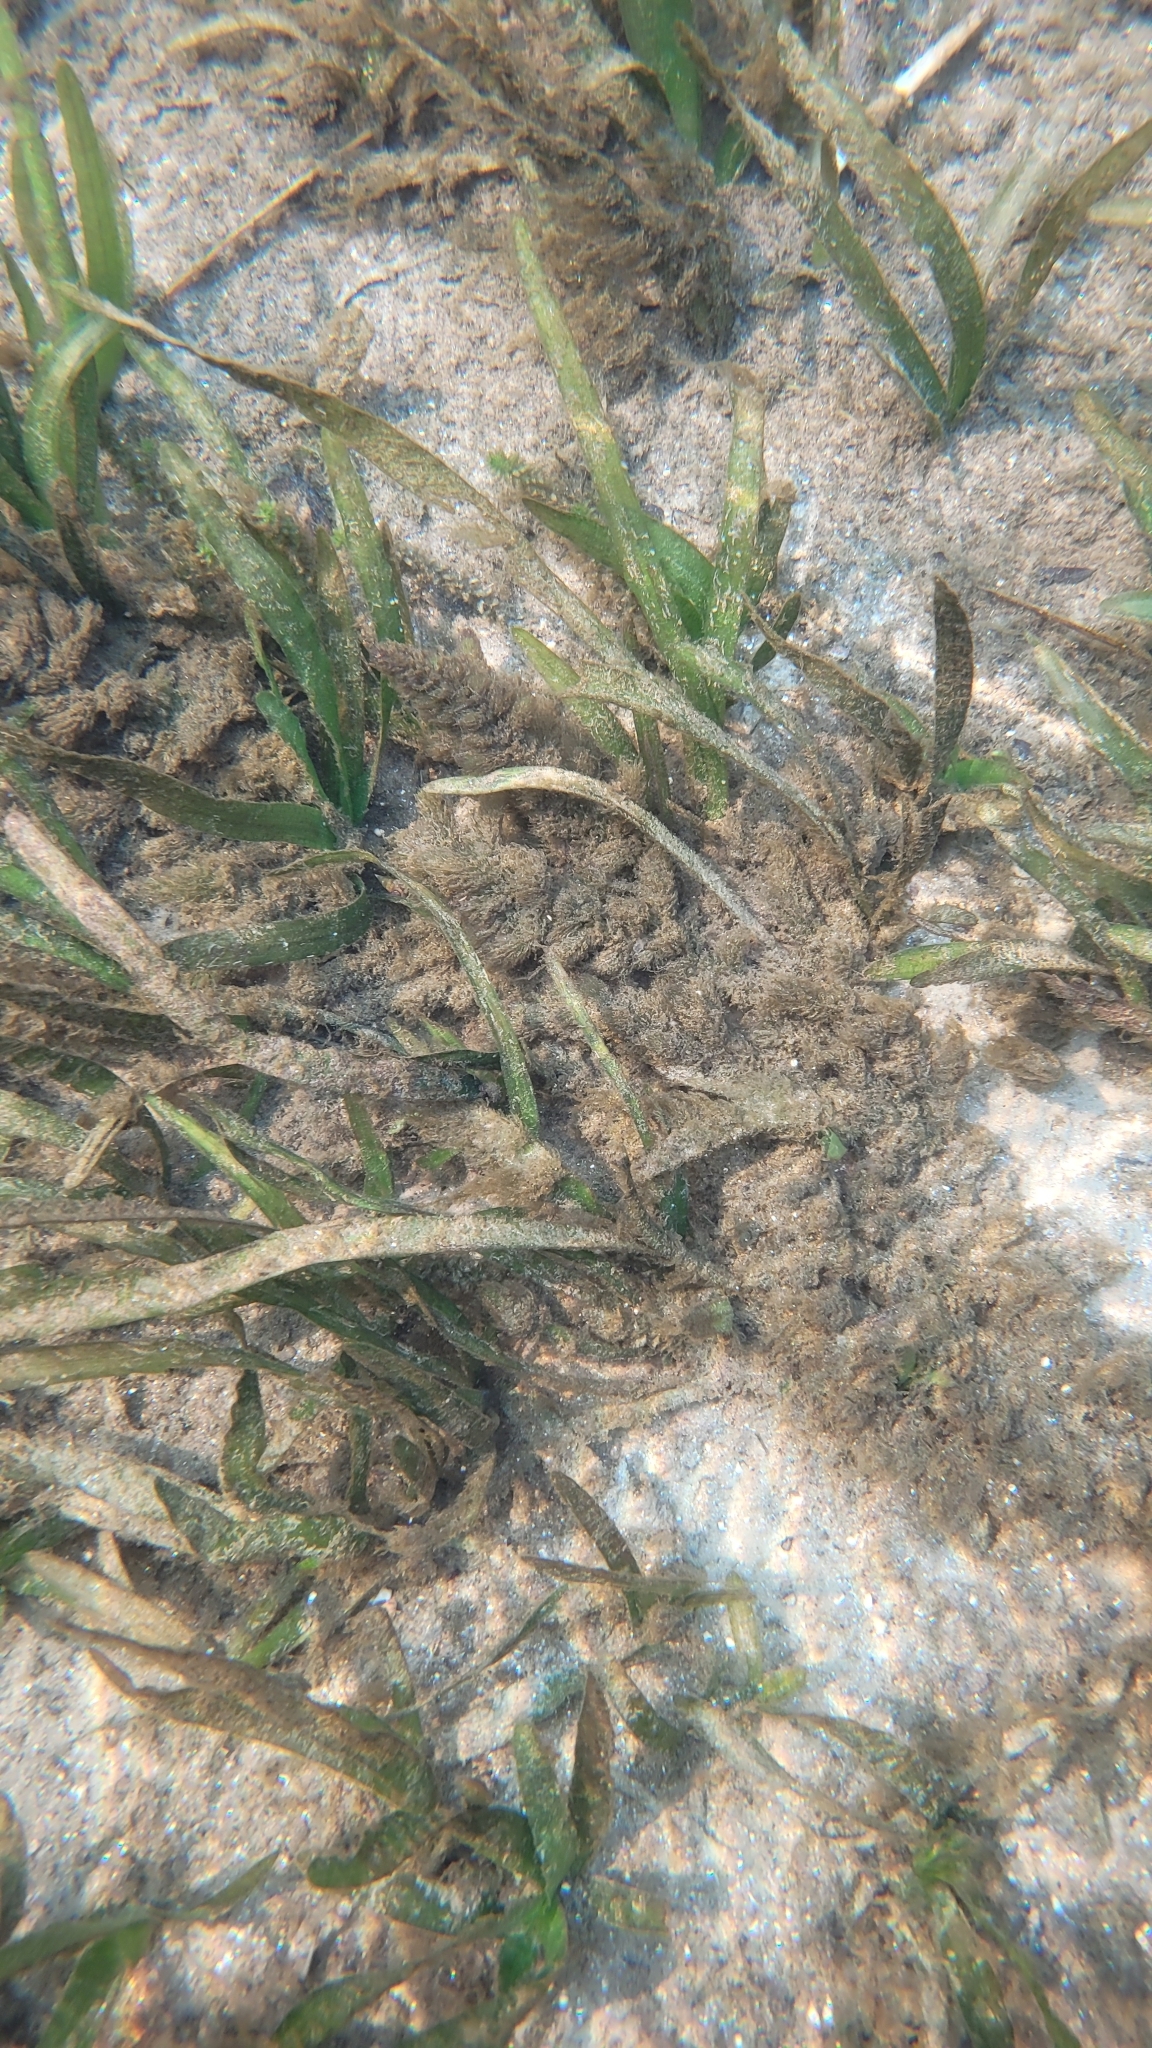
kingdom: Plantae
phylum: Tracheophyta
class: Liliopsida
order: Alismatales
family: Hydrocharitaceae
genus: Vallisneria
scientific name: Vallisneria americana
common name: American eelgrass
